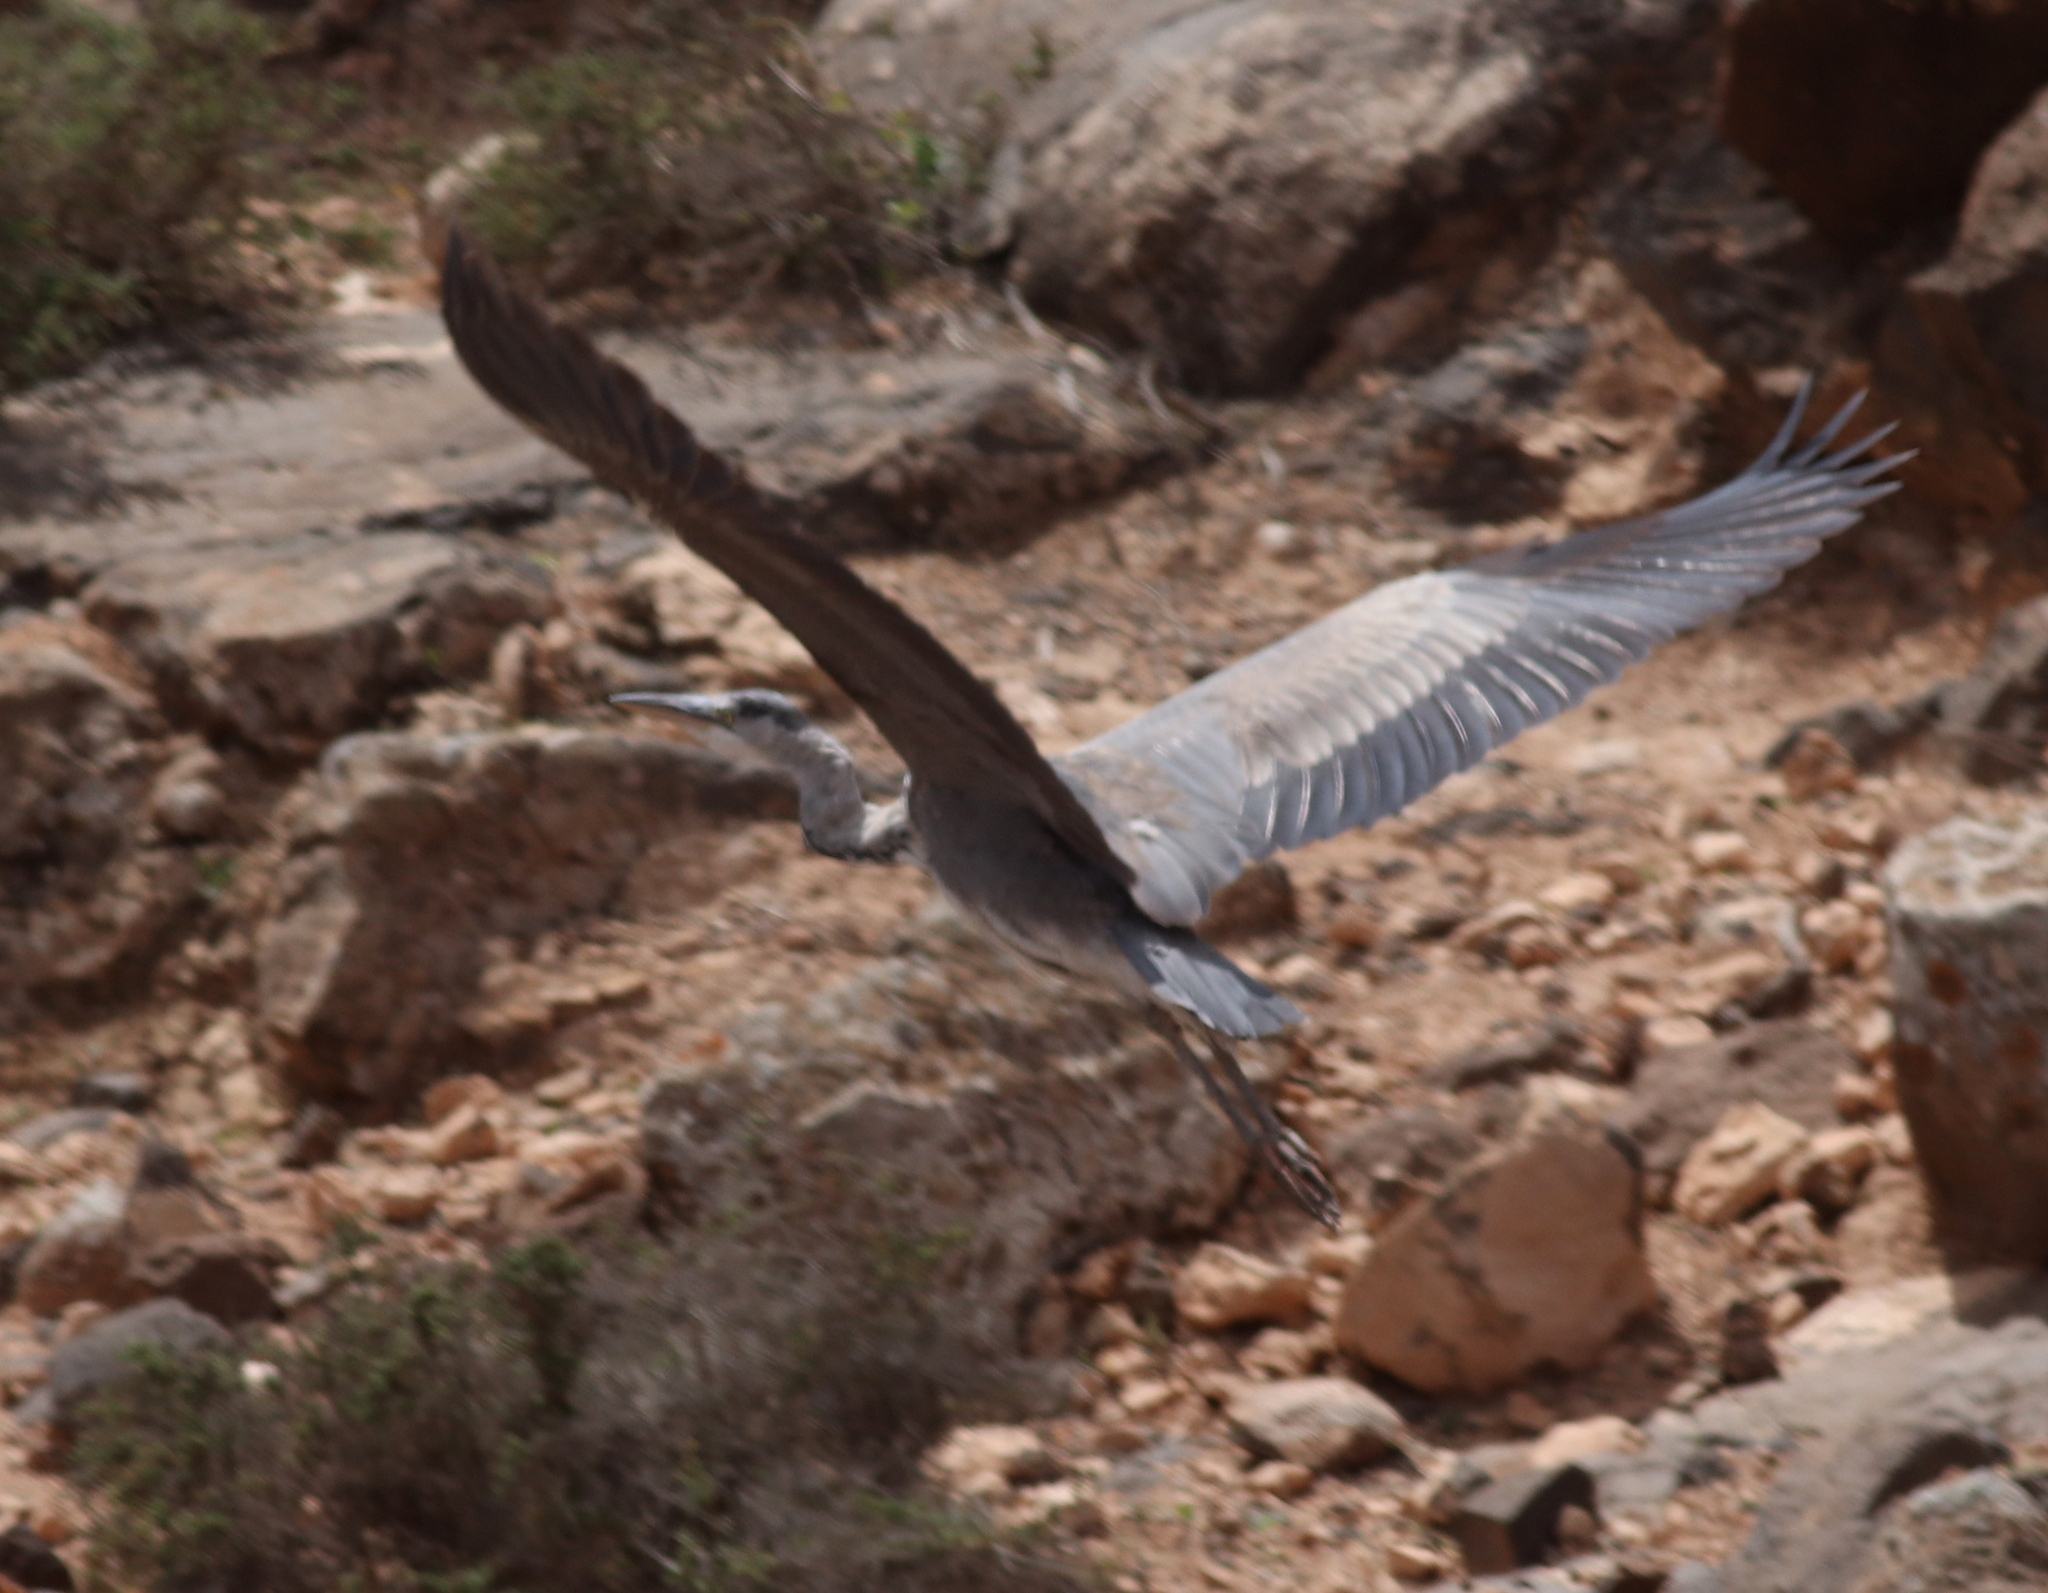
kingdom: Animalia
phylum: Chordata
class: Aves
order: Pelecaniformes
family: Ardeidae
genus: Ardea
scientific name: Ardea cinerea
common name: Grey heron
